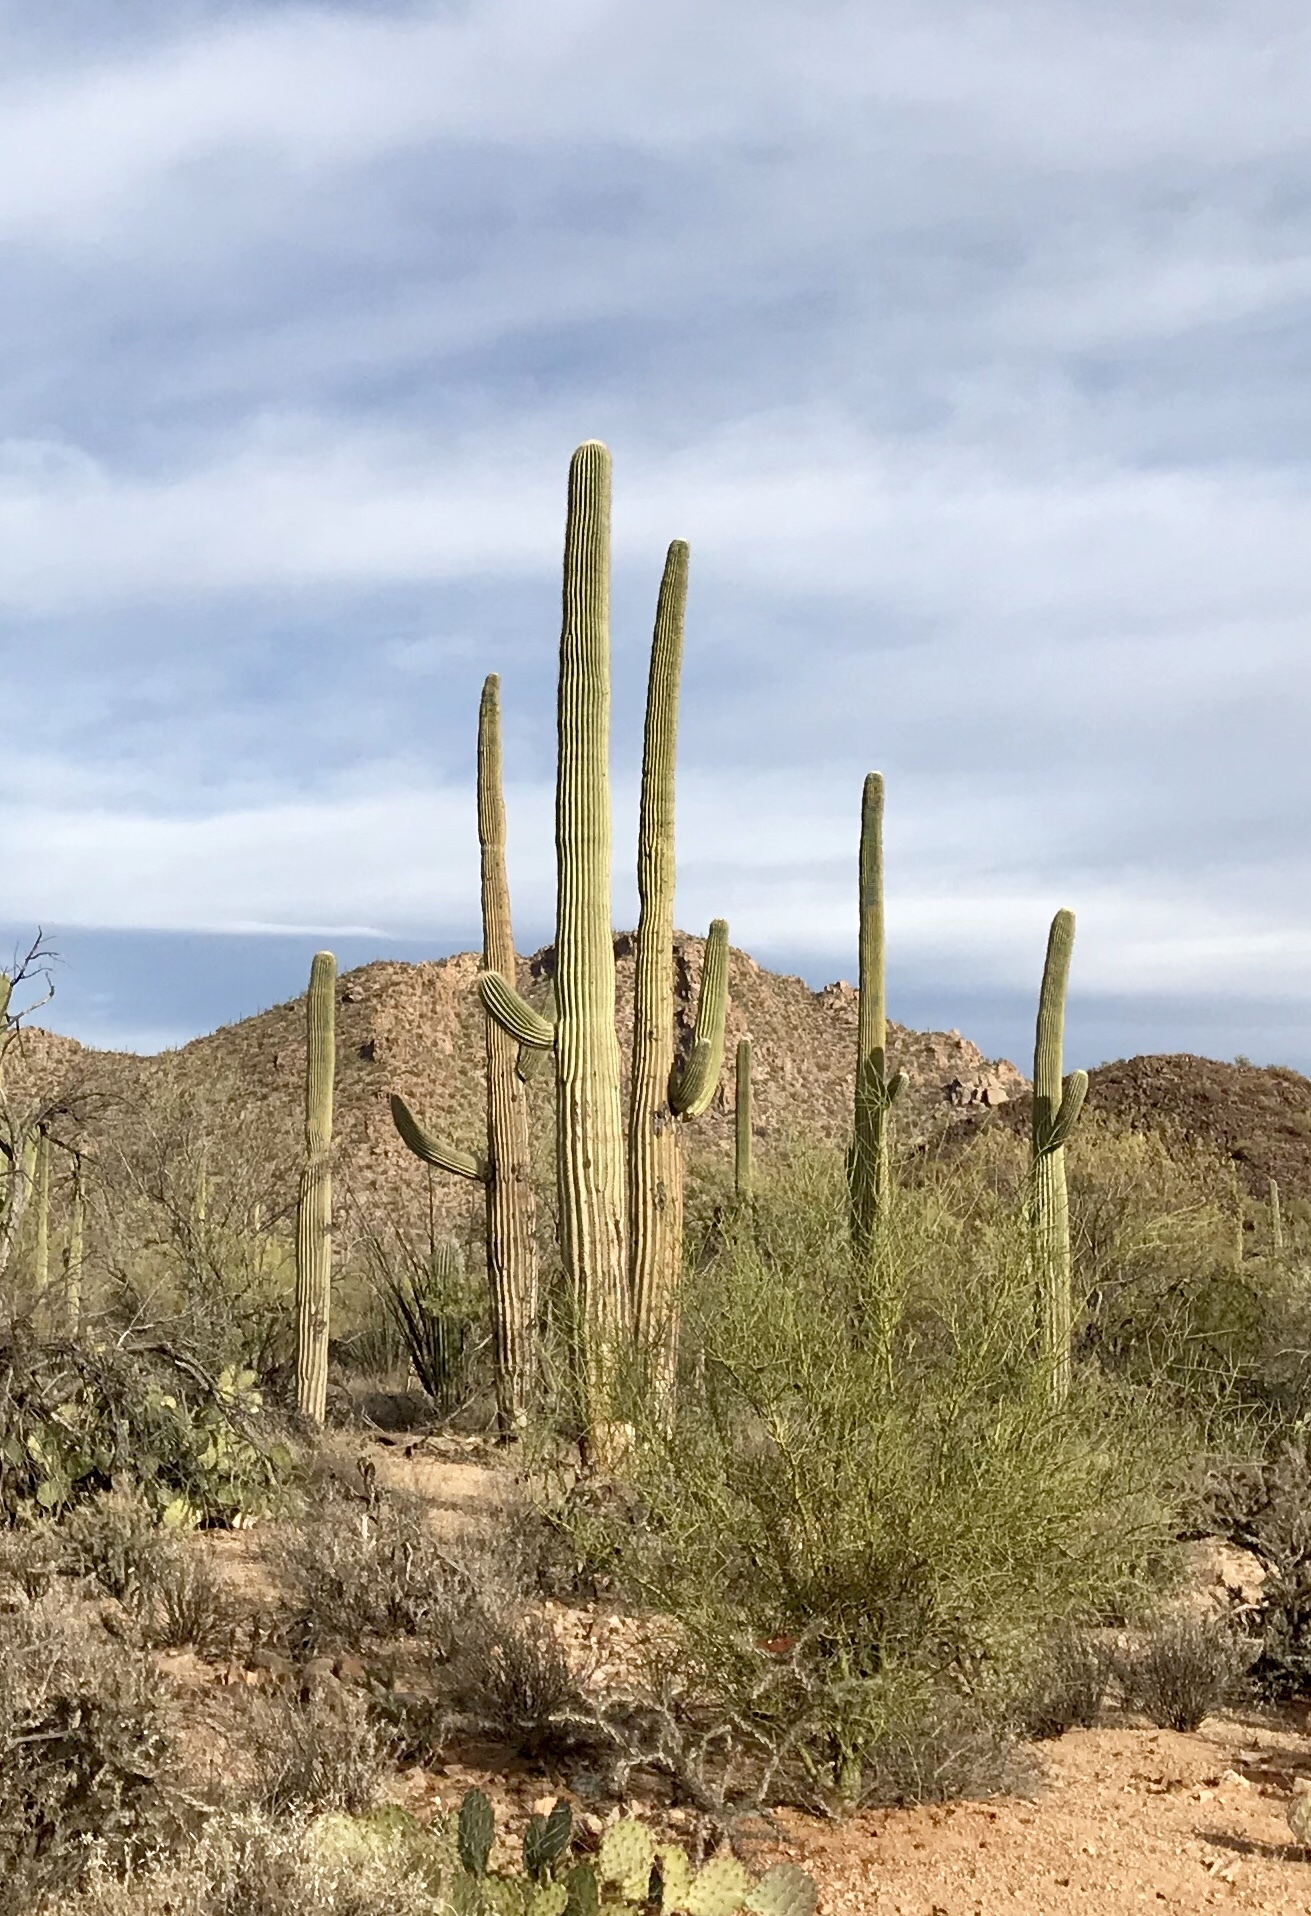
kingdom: Plantae
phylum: Tracheophyta
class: Magnoliopsida
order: Caryophyllales
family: Cactaceae
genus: Carnegiea
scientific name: Carnegiea gigantea
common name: Saguaro
